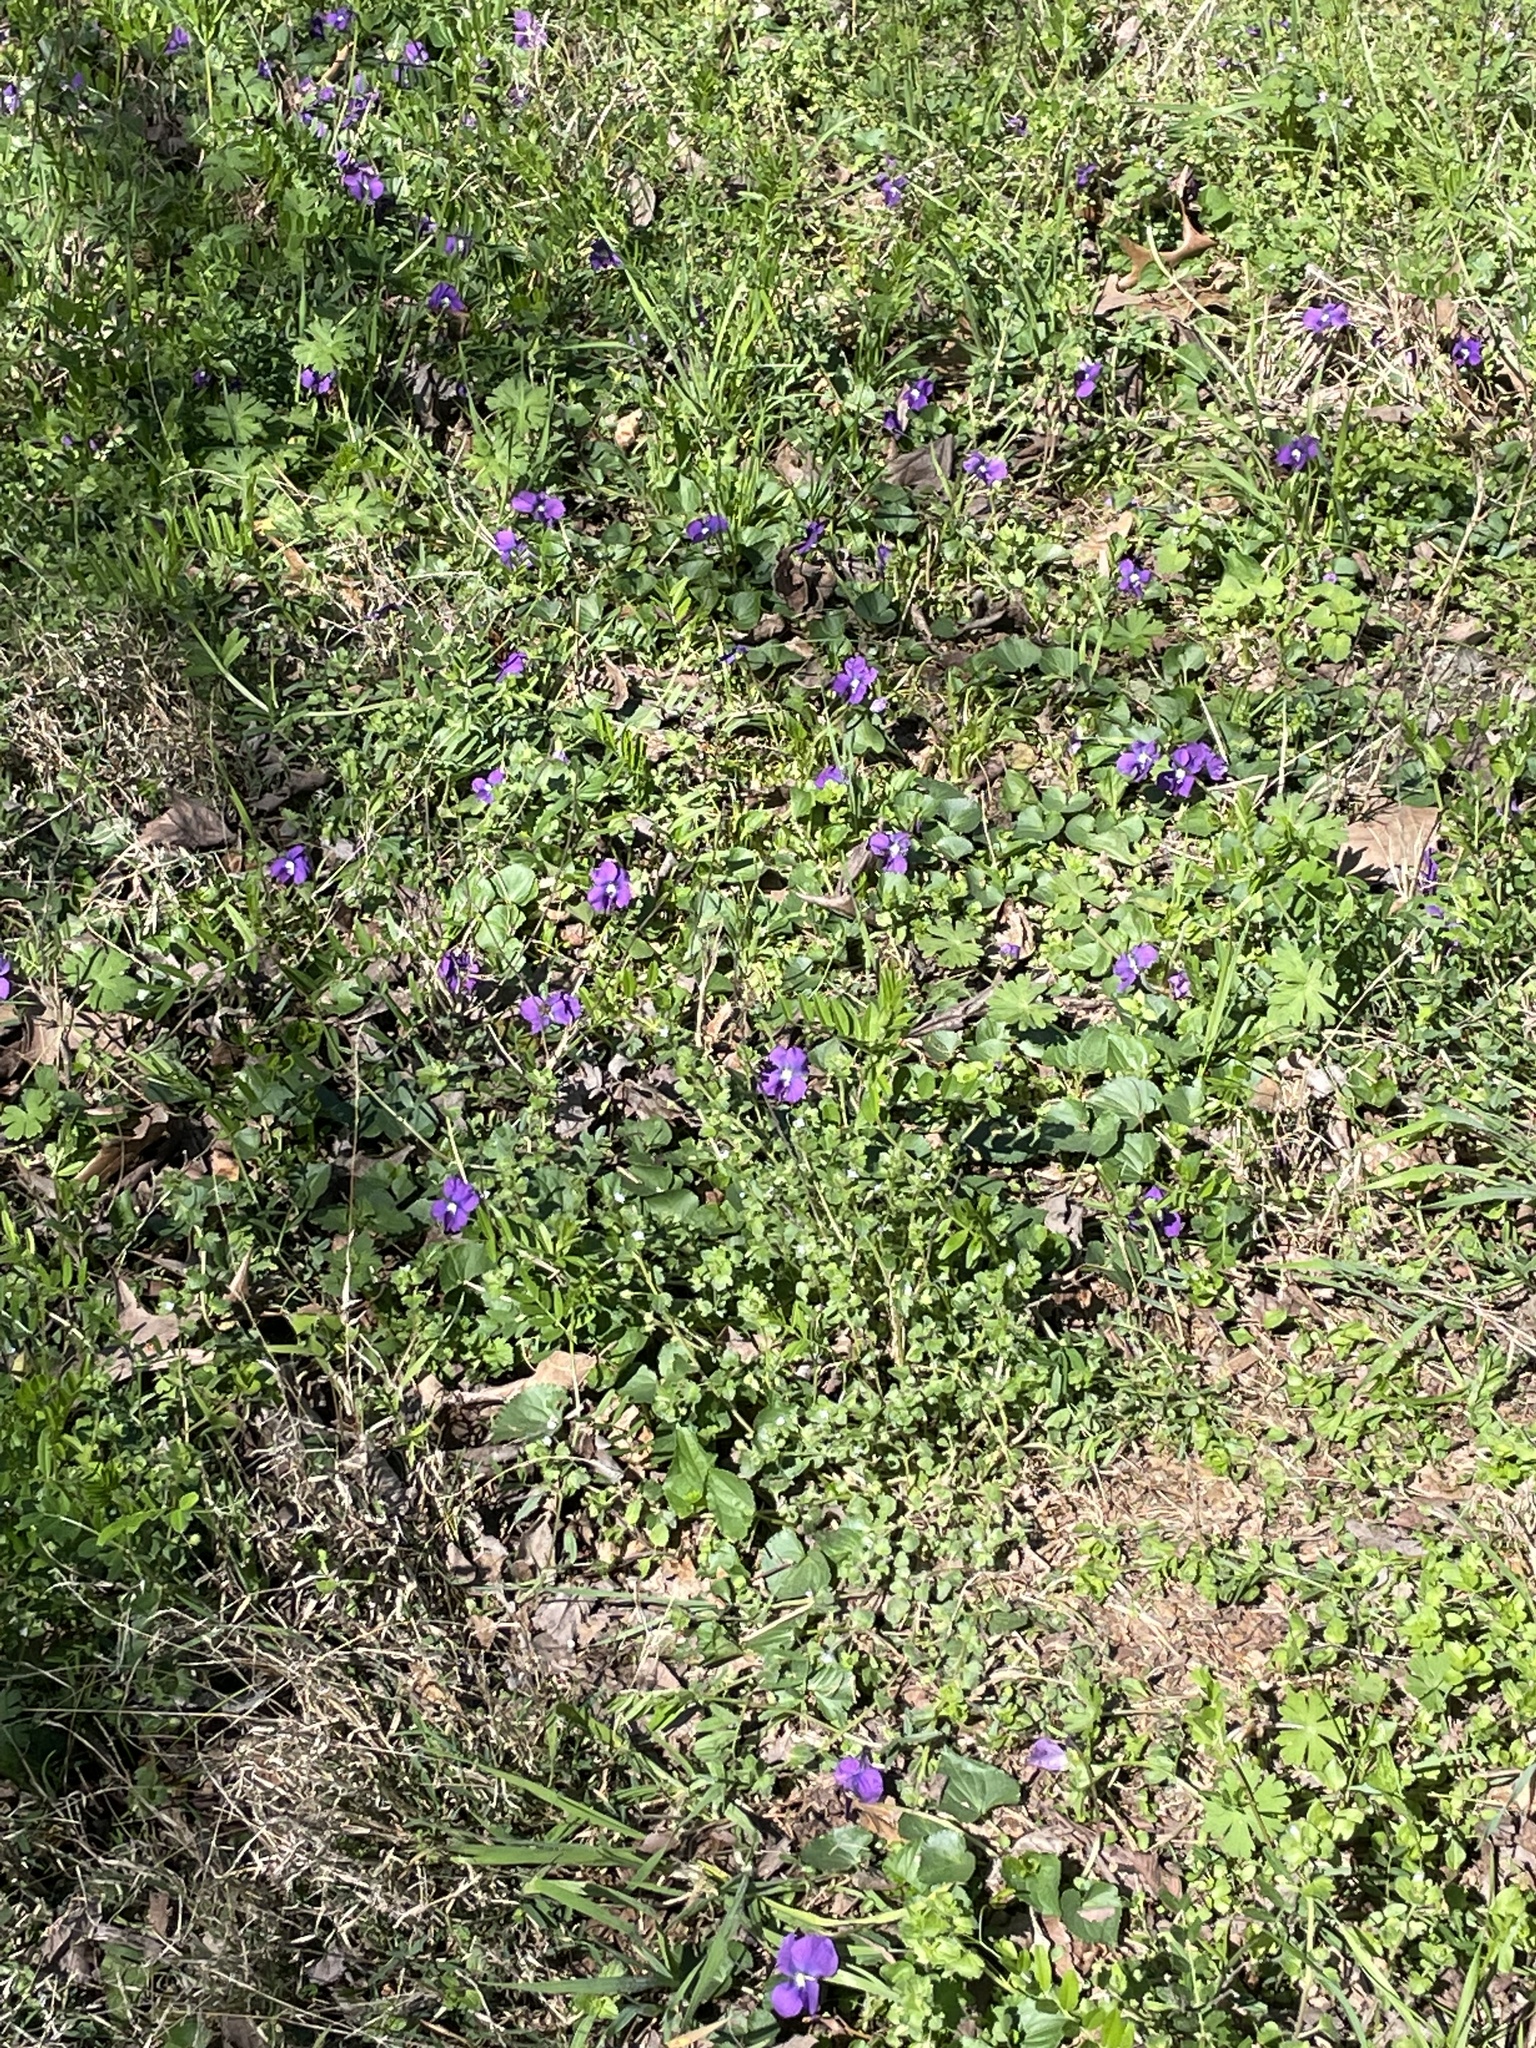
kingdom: Plantae
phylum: Tracheophyta
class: Magnoliopsida
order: Malpighiales
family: Violaceae
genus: Viola
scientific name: Viola sororia
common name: Dooryard violet
